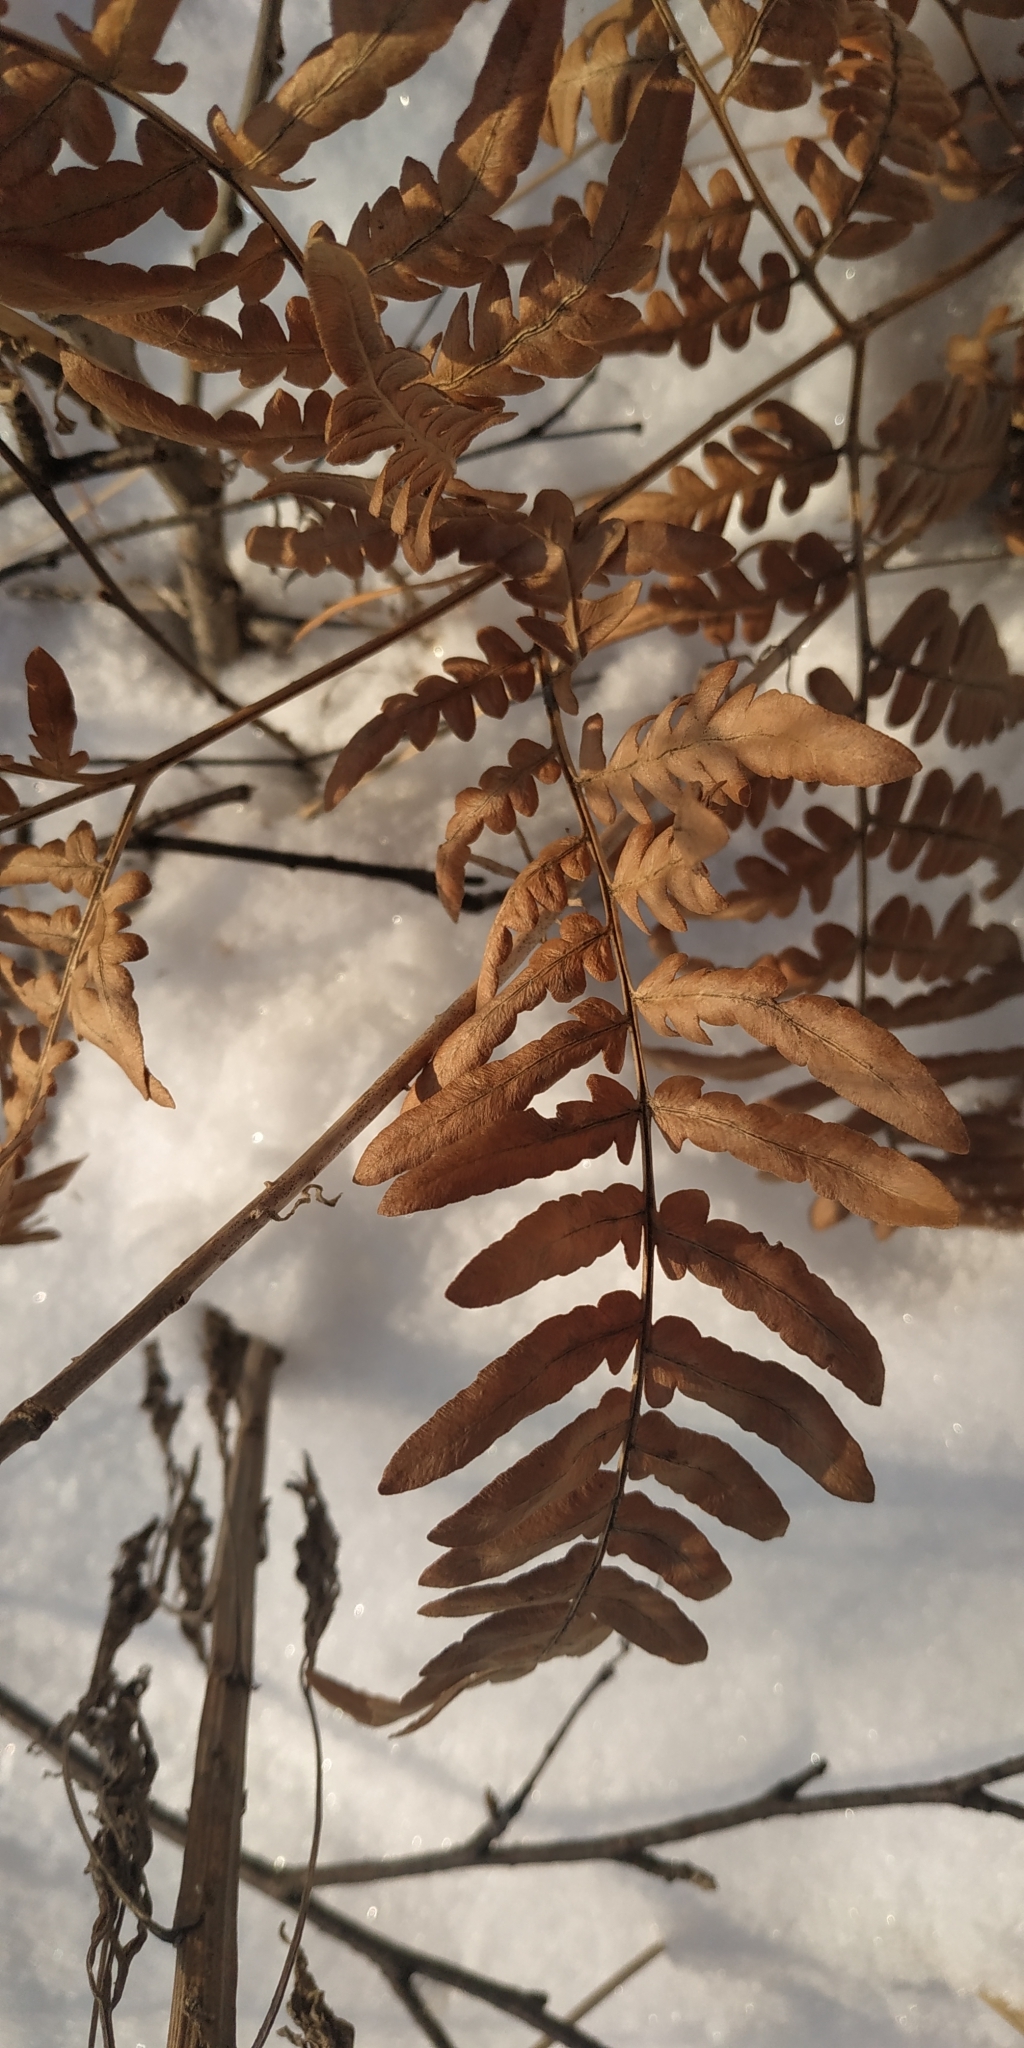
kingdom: Plantae
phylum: Tracheophyta
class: Polypodiopsida
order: Polypodiales
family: Dennstaedtiaceae
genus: Pteridium
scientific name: Pteridium aquilinum
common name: Bracken
